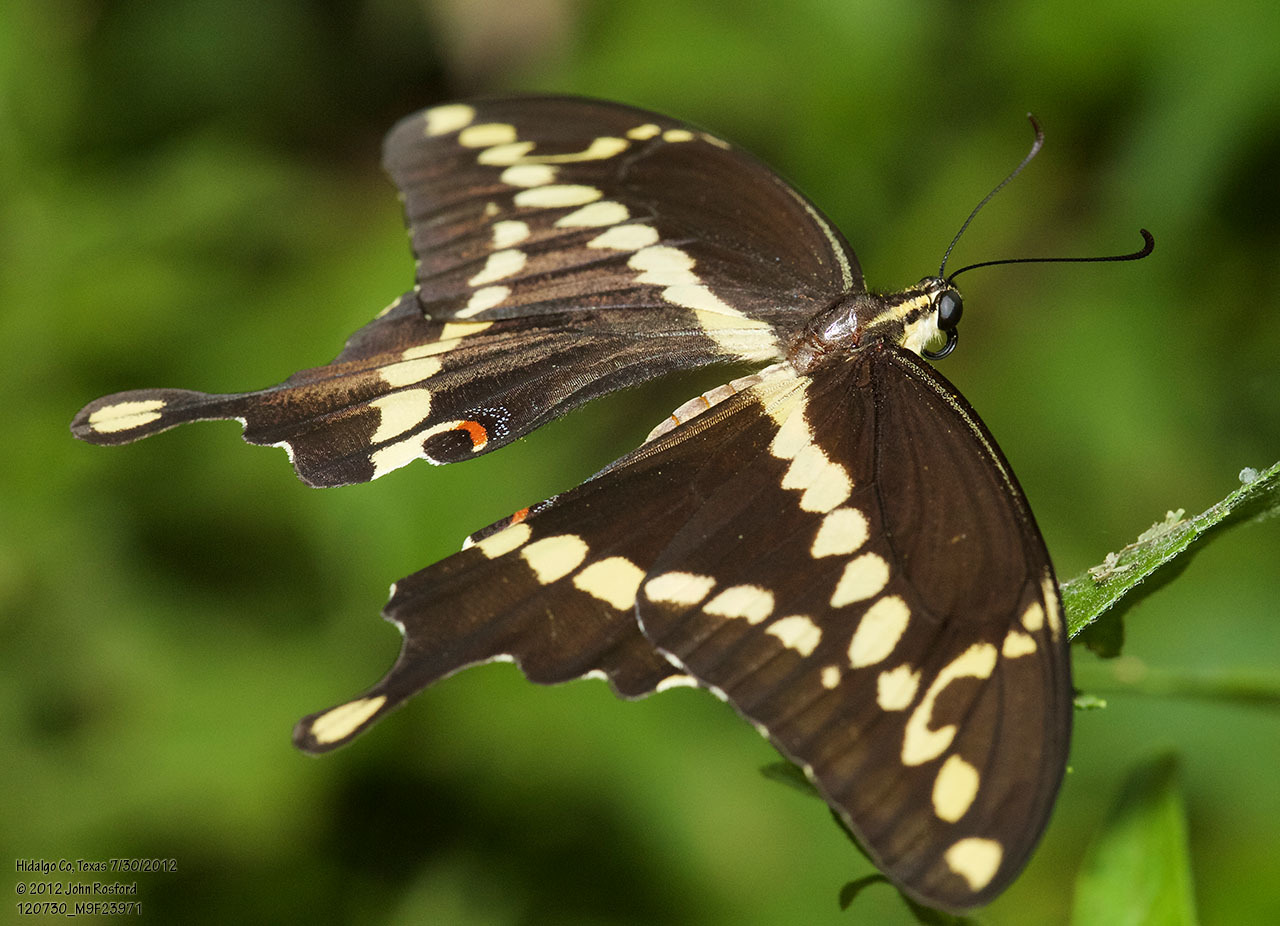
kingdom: Animalia
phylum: Arthropoda
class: Insecta
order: Lepidoptera
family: Papilionidae
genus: Papilio
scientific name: Papilio rumiko
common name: Western giant swallowtail
